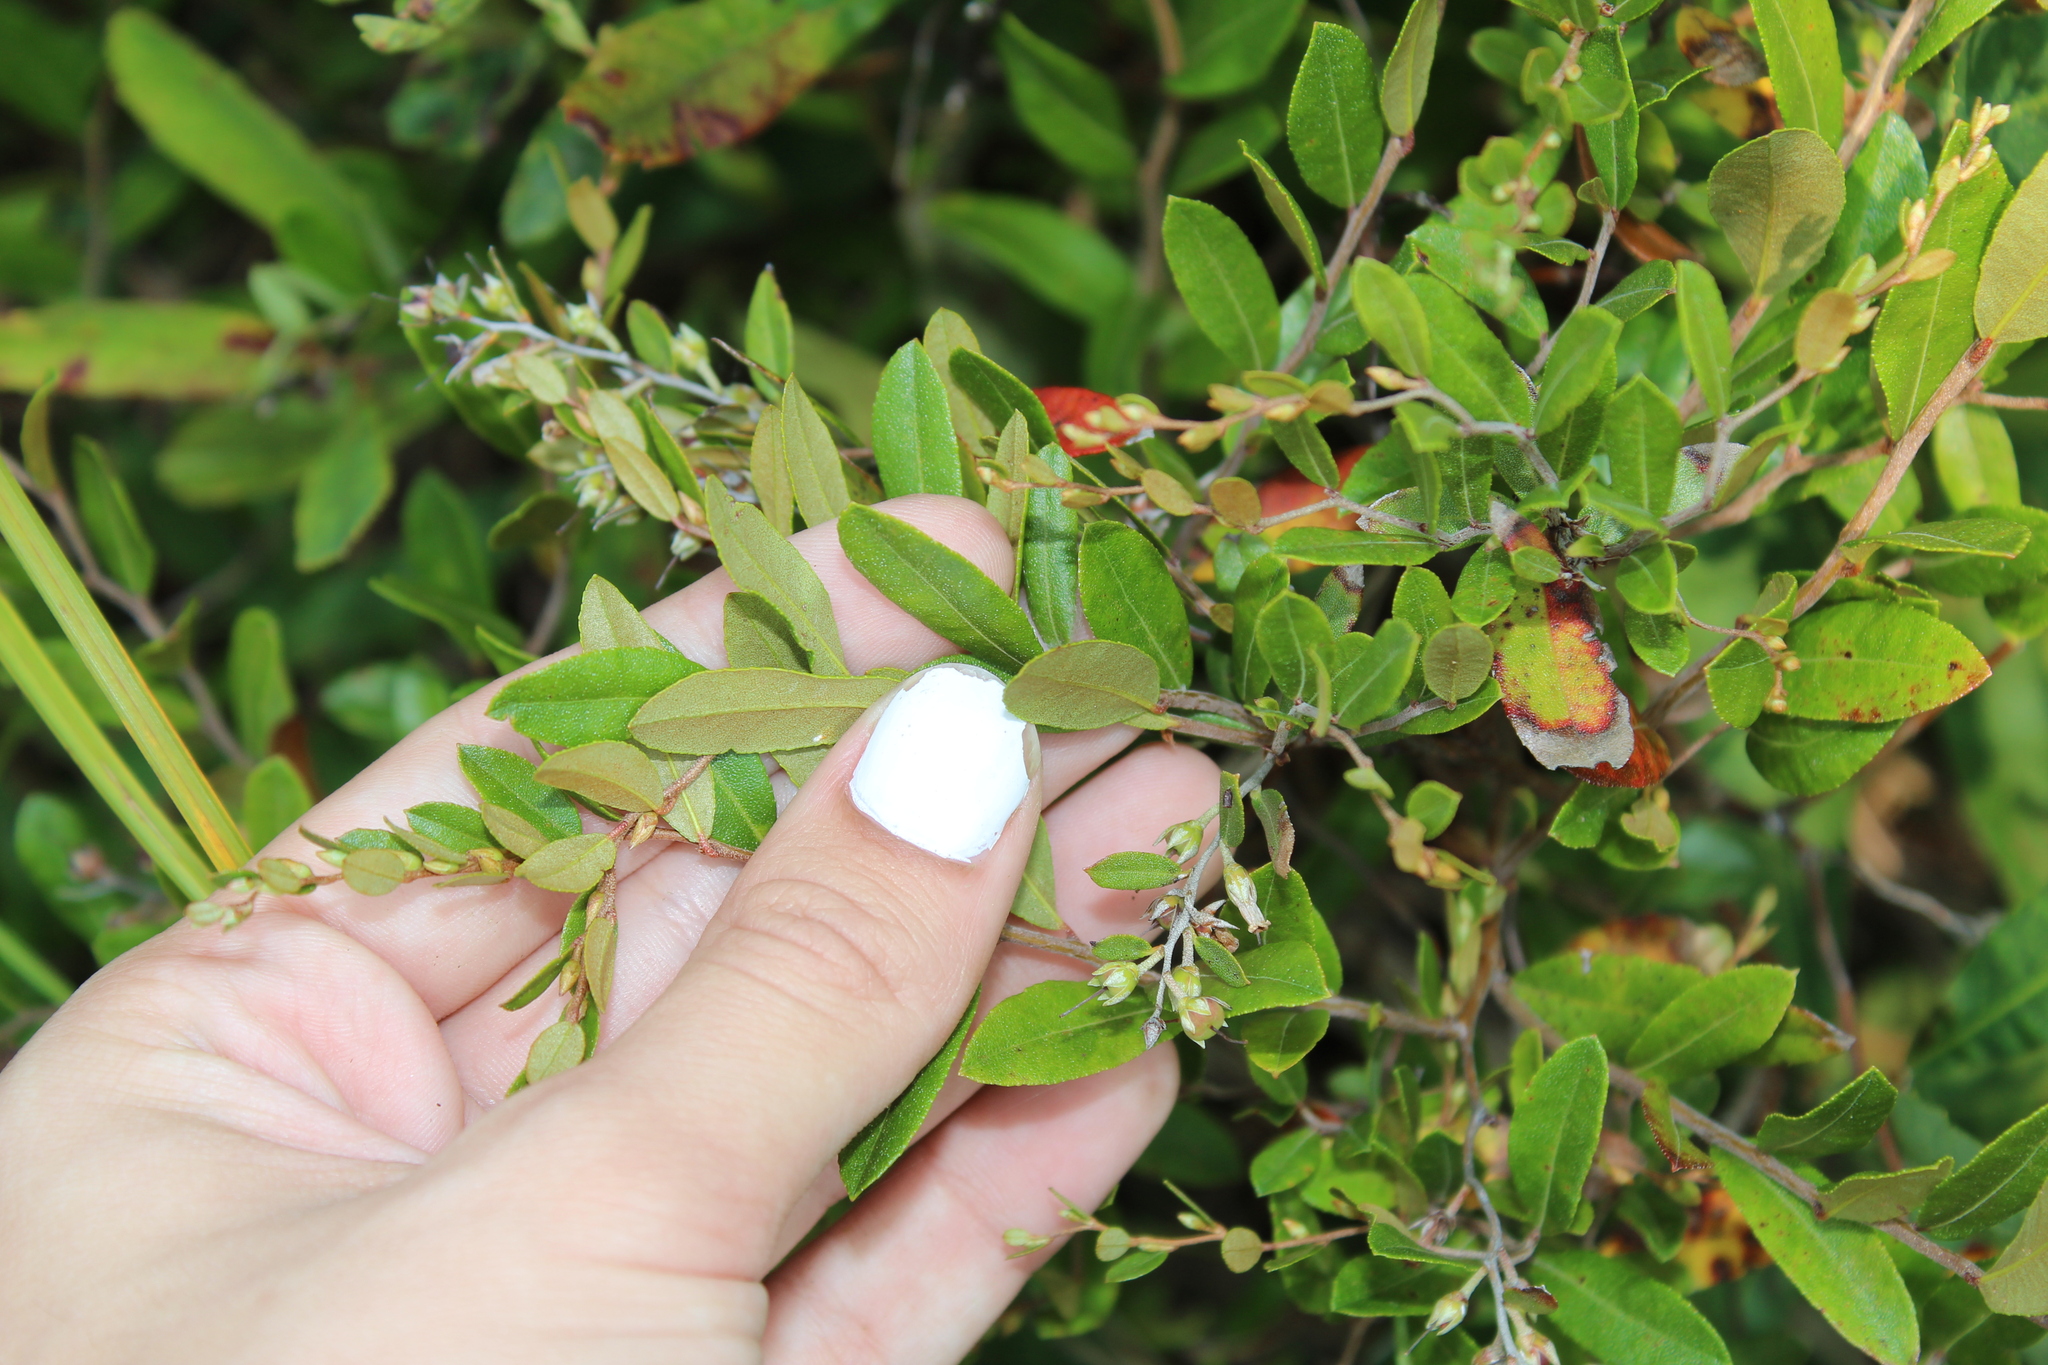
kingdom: Plantae
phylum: Tracheophyta
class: Magnoliopsida
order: Ericales
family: Ericaceae
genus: Chamaedaphne
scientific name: Chamaedaphne calyculata
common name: Leatherleaf
